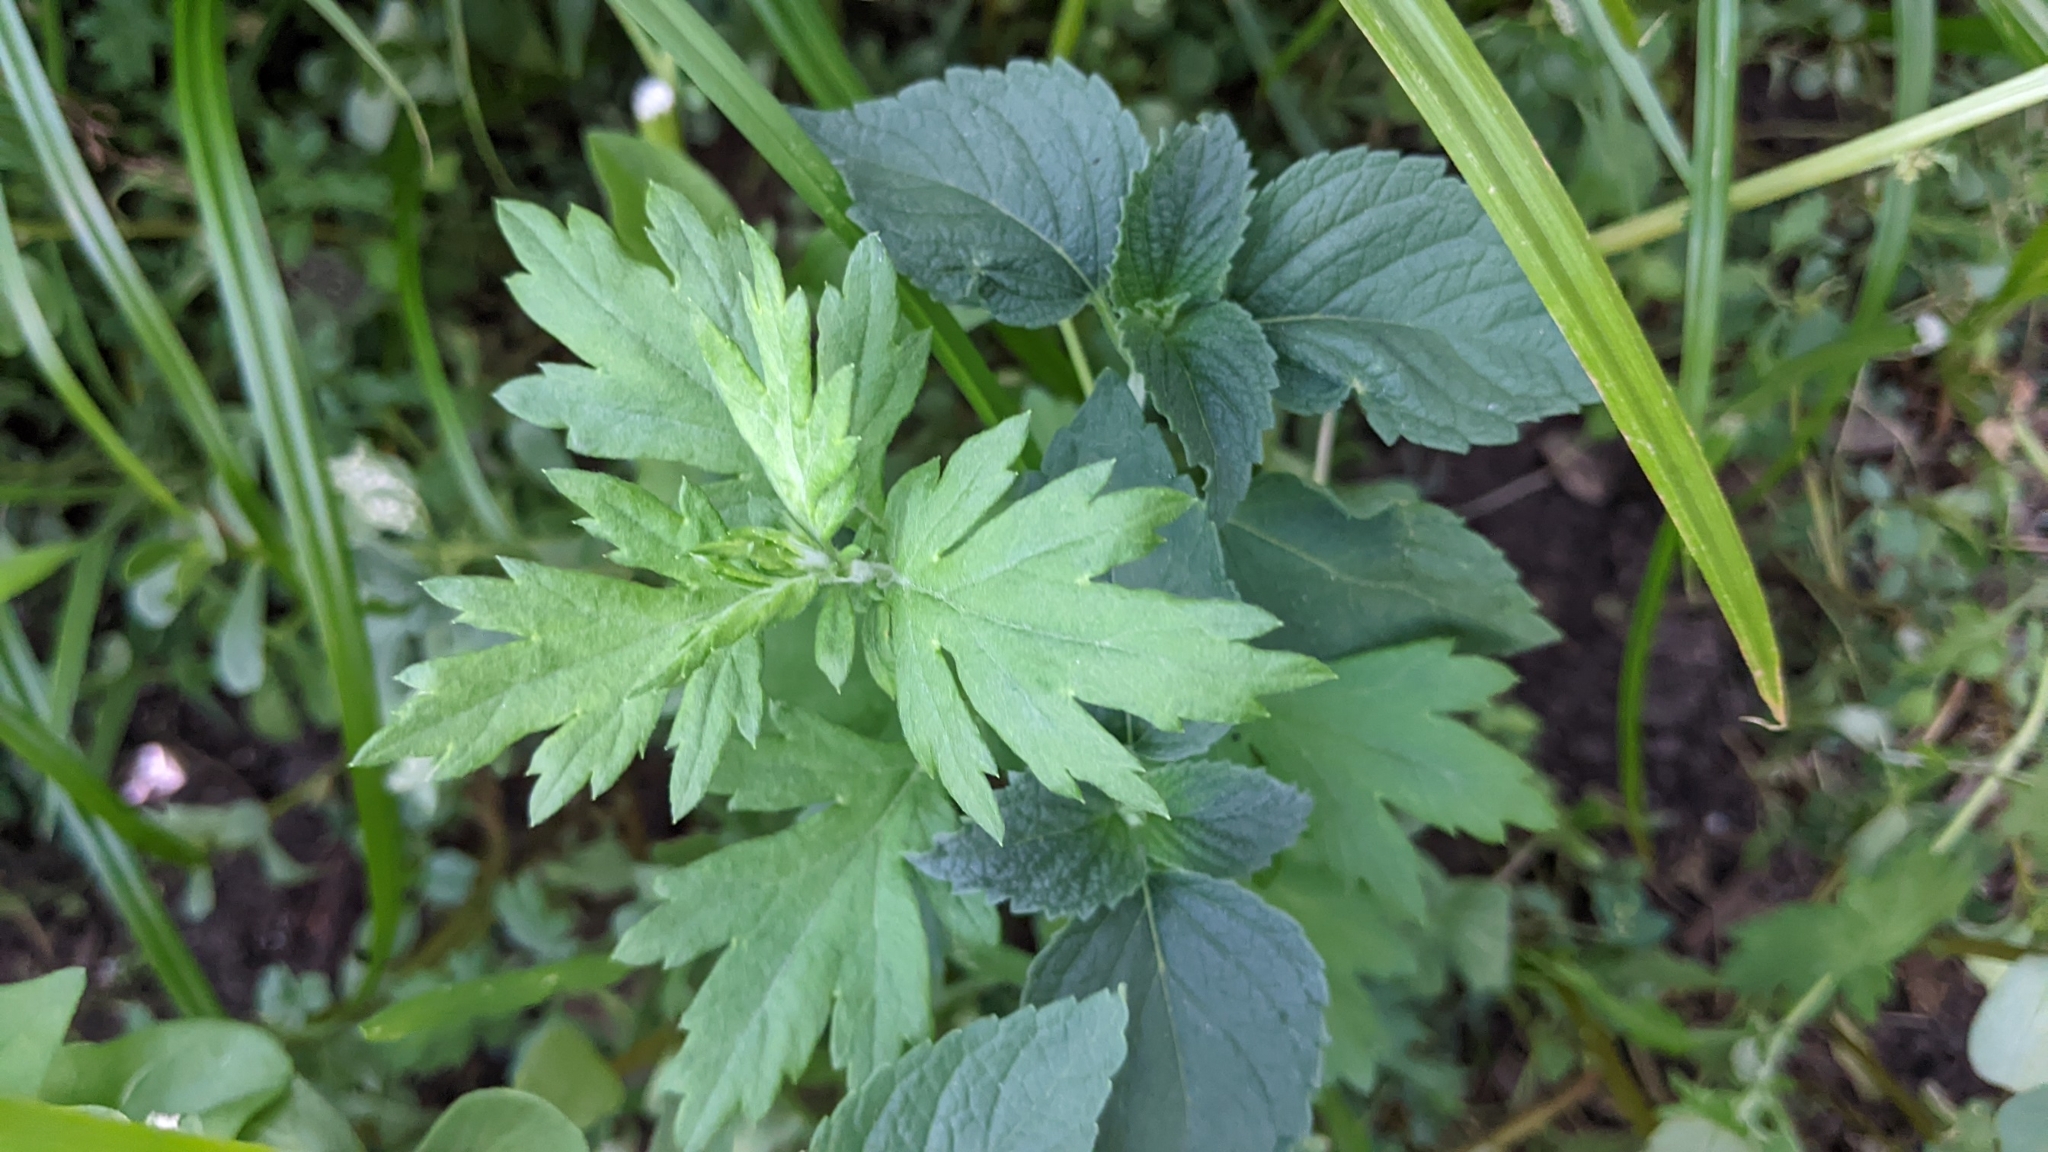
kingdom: Plantae
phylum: Tracheophyta
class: Magnoliopsida
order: Asterales
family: Asteraceae
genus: Artemisia
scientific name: Artemisia vulgaris
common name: Mugwort
